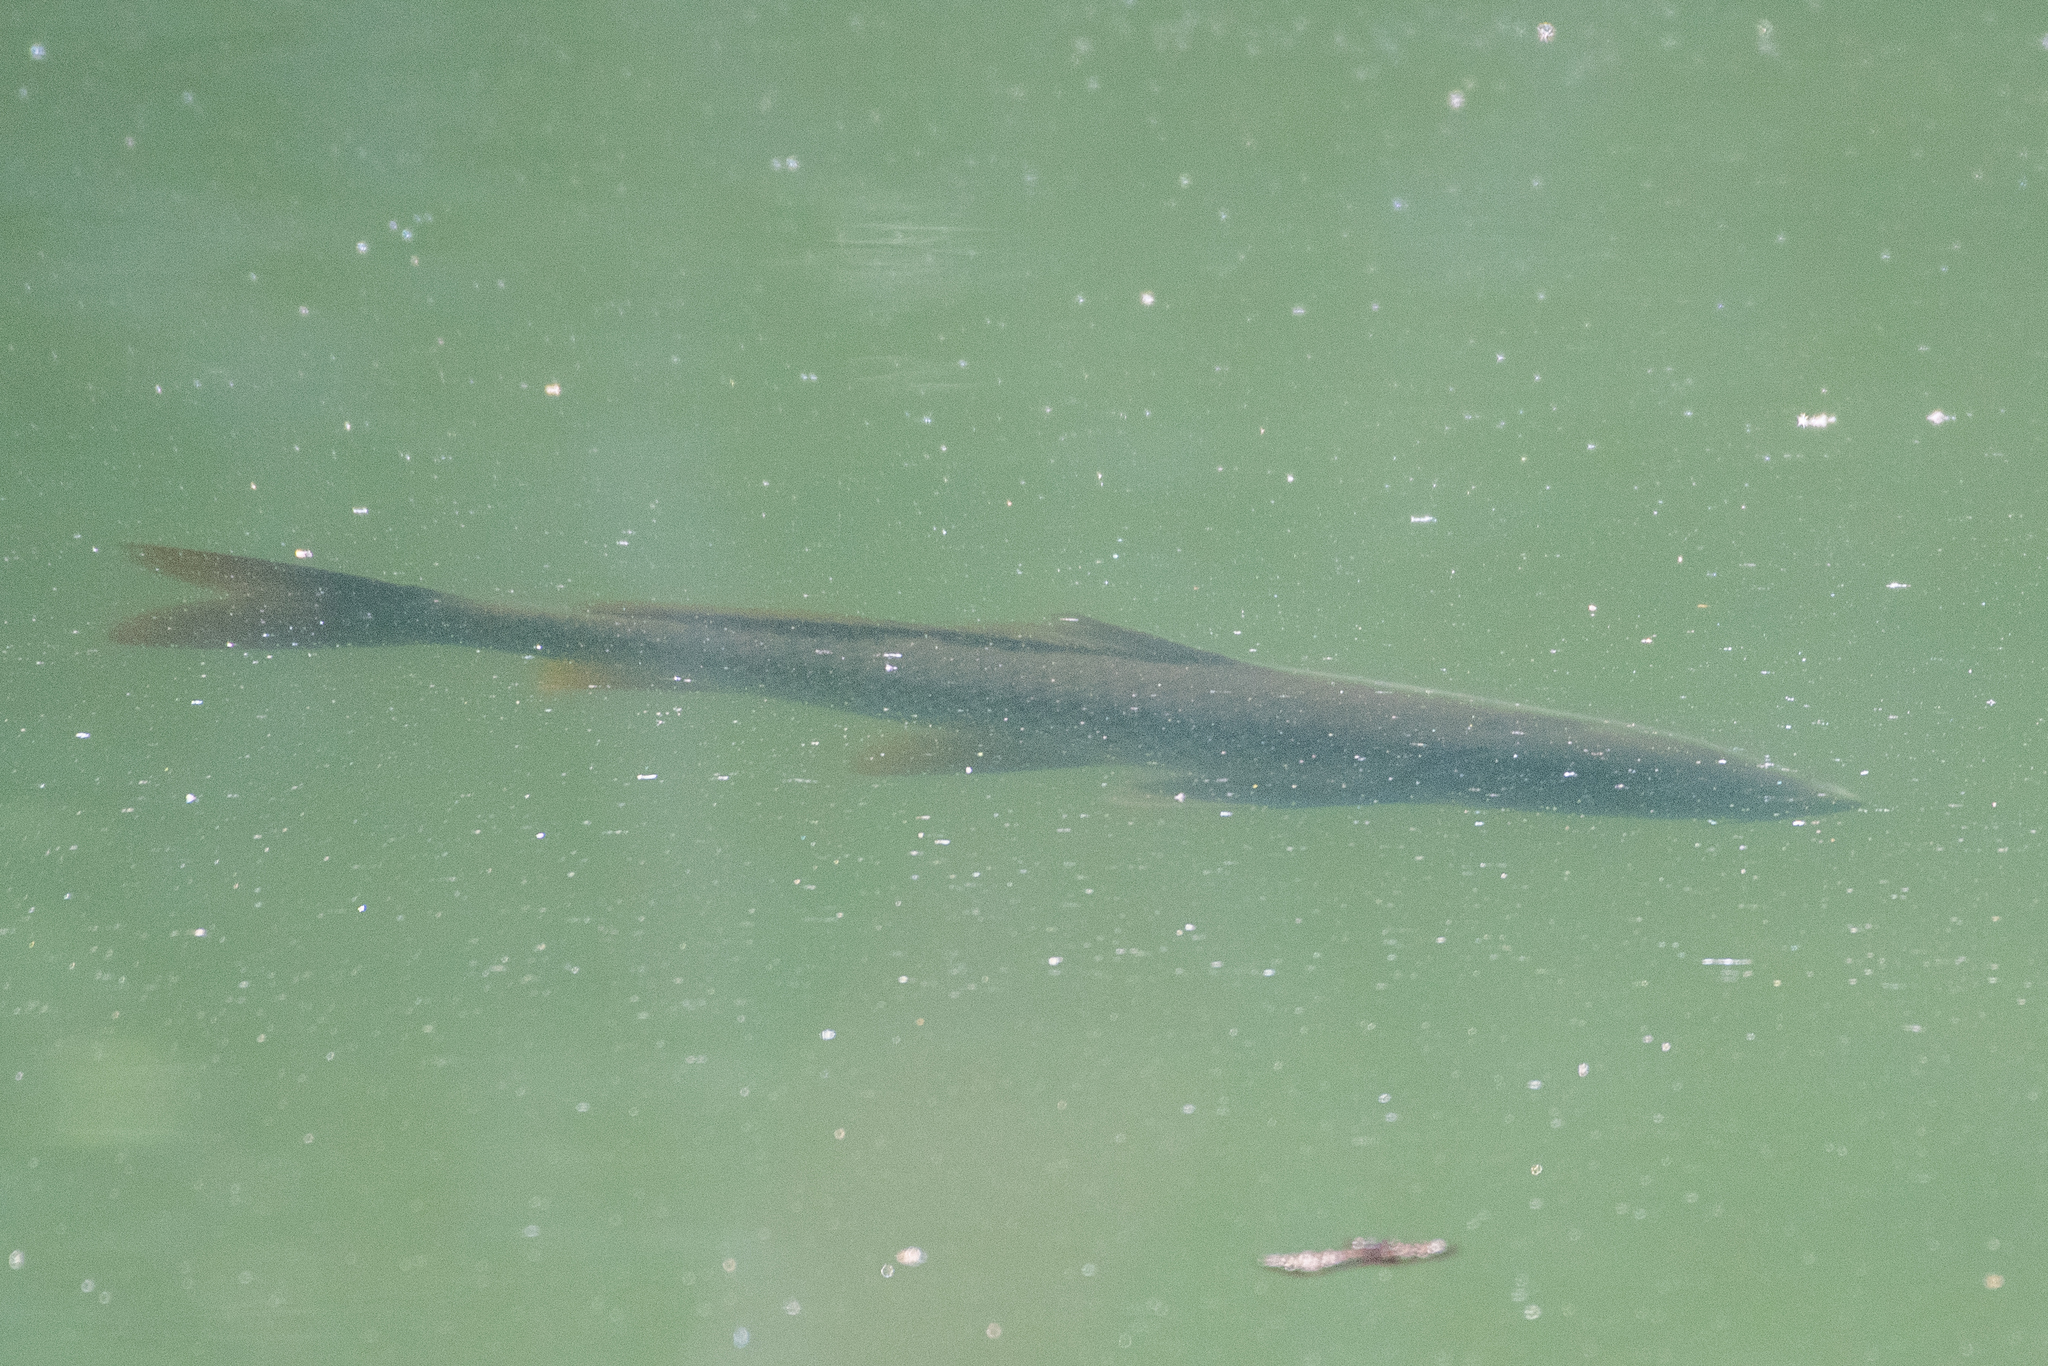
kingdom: Animalia
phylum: Chordata
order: Cypriniformes
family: Cyprinidae
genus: Cyprinus
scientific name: Cyprinus carpio
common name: Common carp
